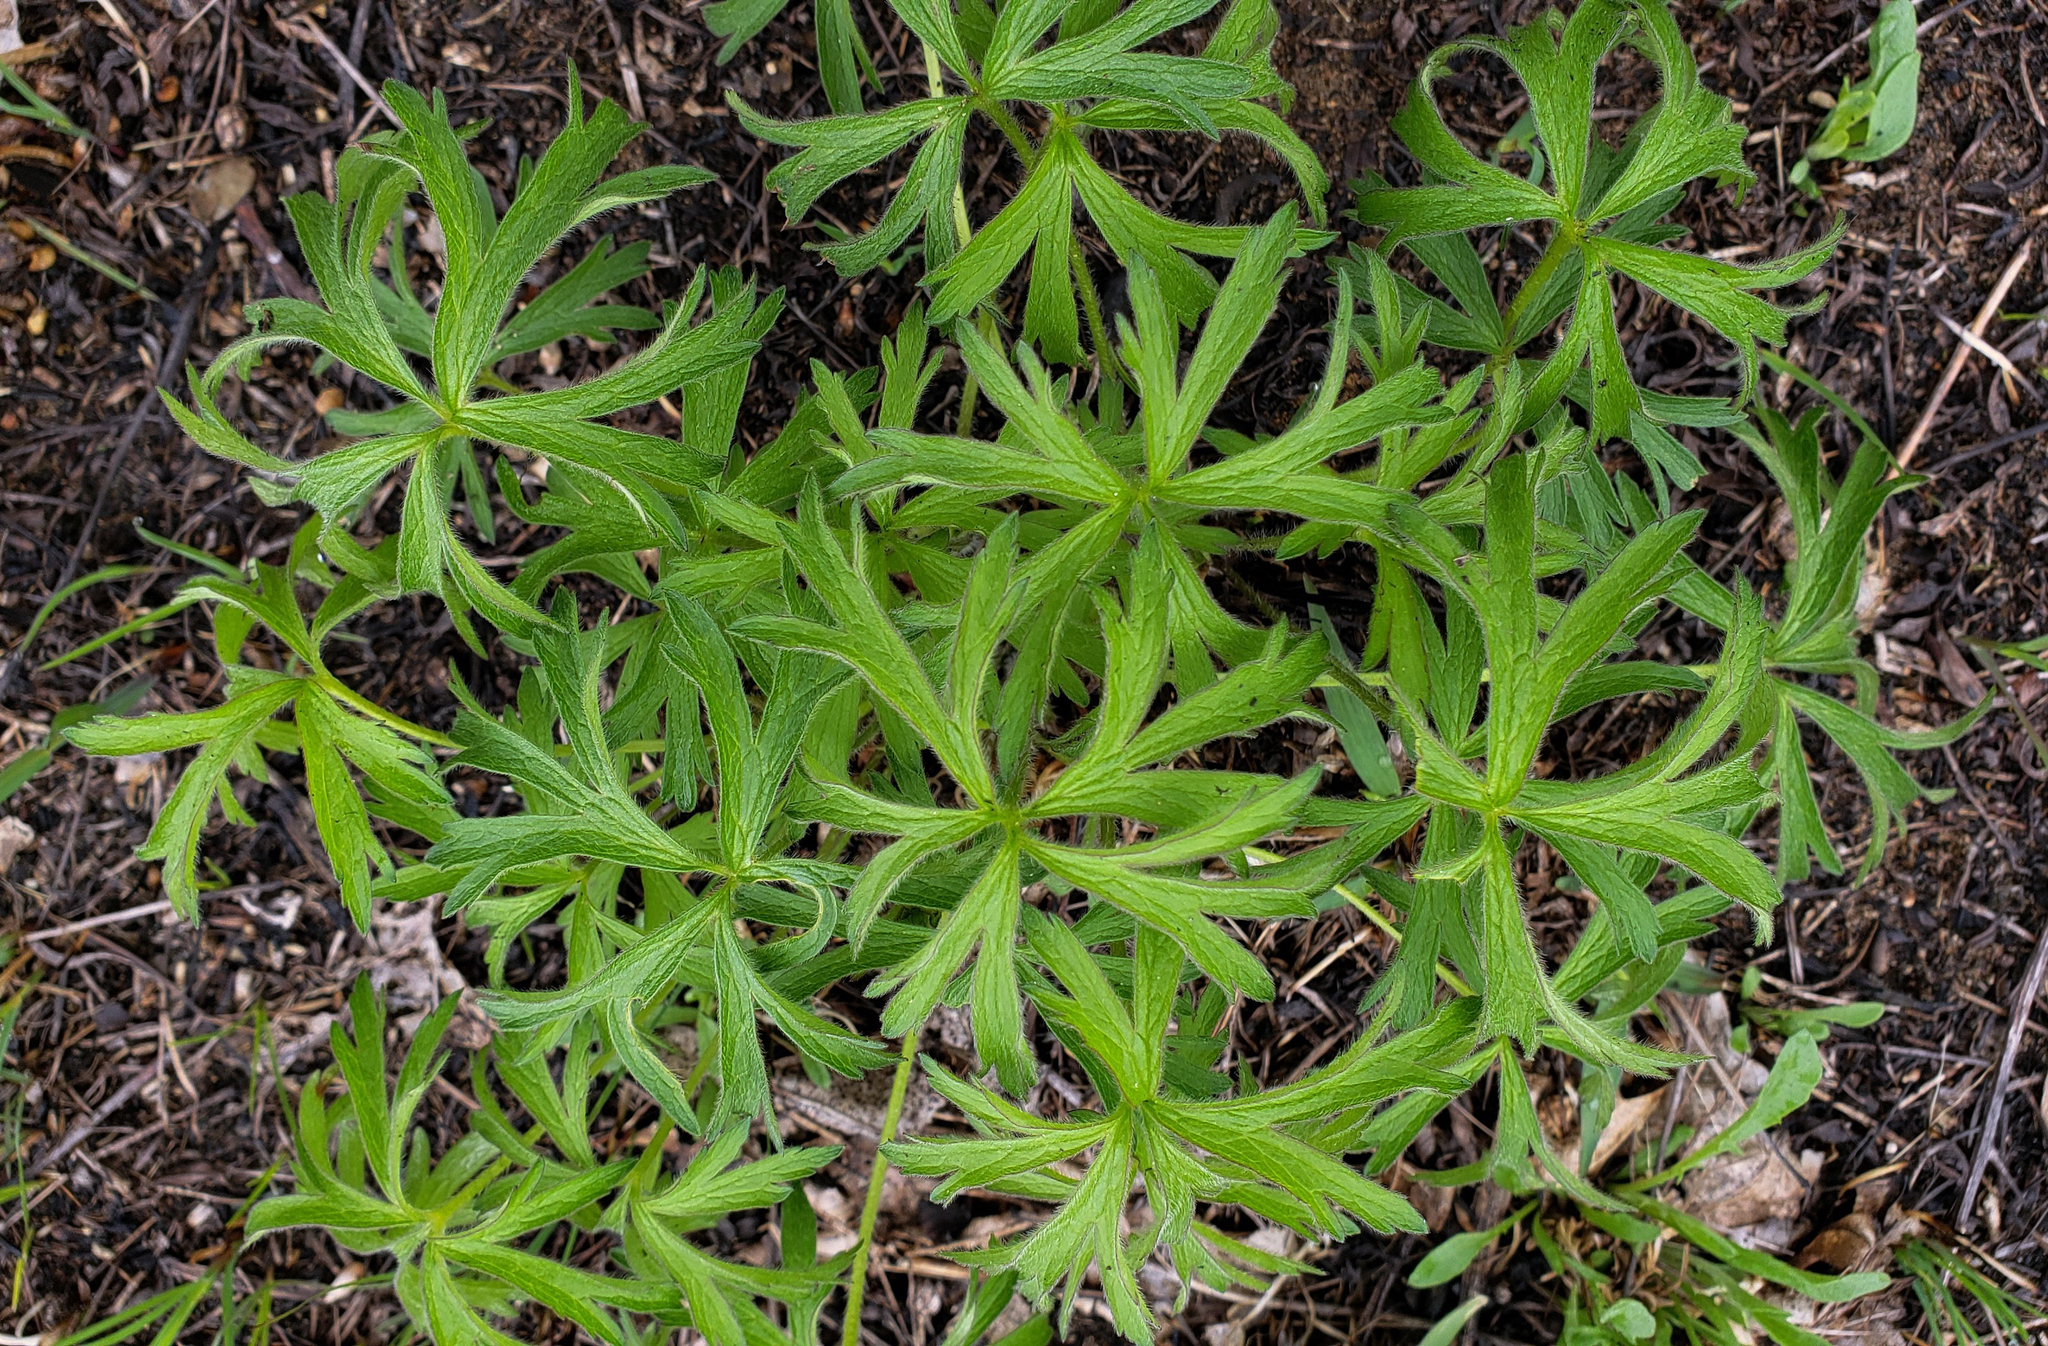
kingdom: Plantae
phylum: Tracheophyta
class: Magnoliopsida
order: Ranunculales
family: Ranunculaceae
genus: Anemone
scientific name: Anemone cylindrica
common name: Candle anemone
